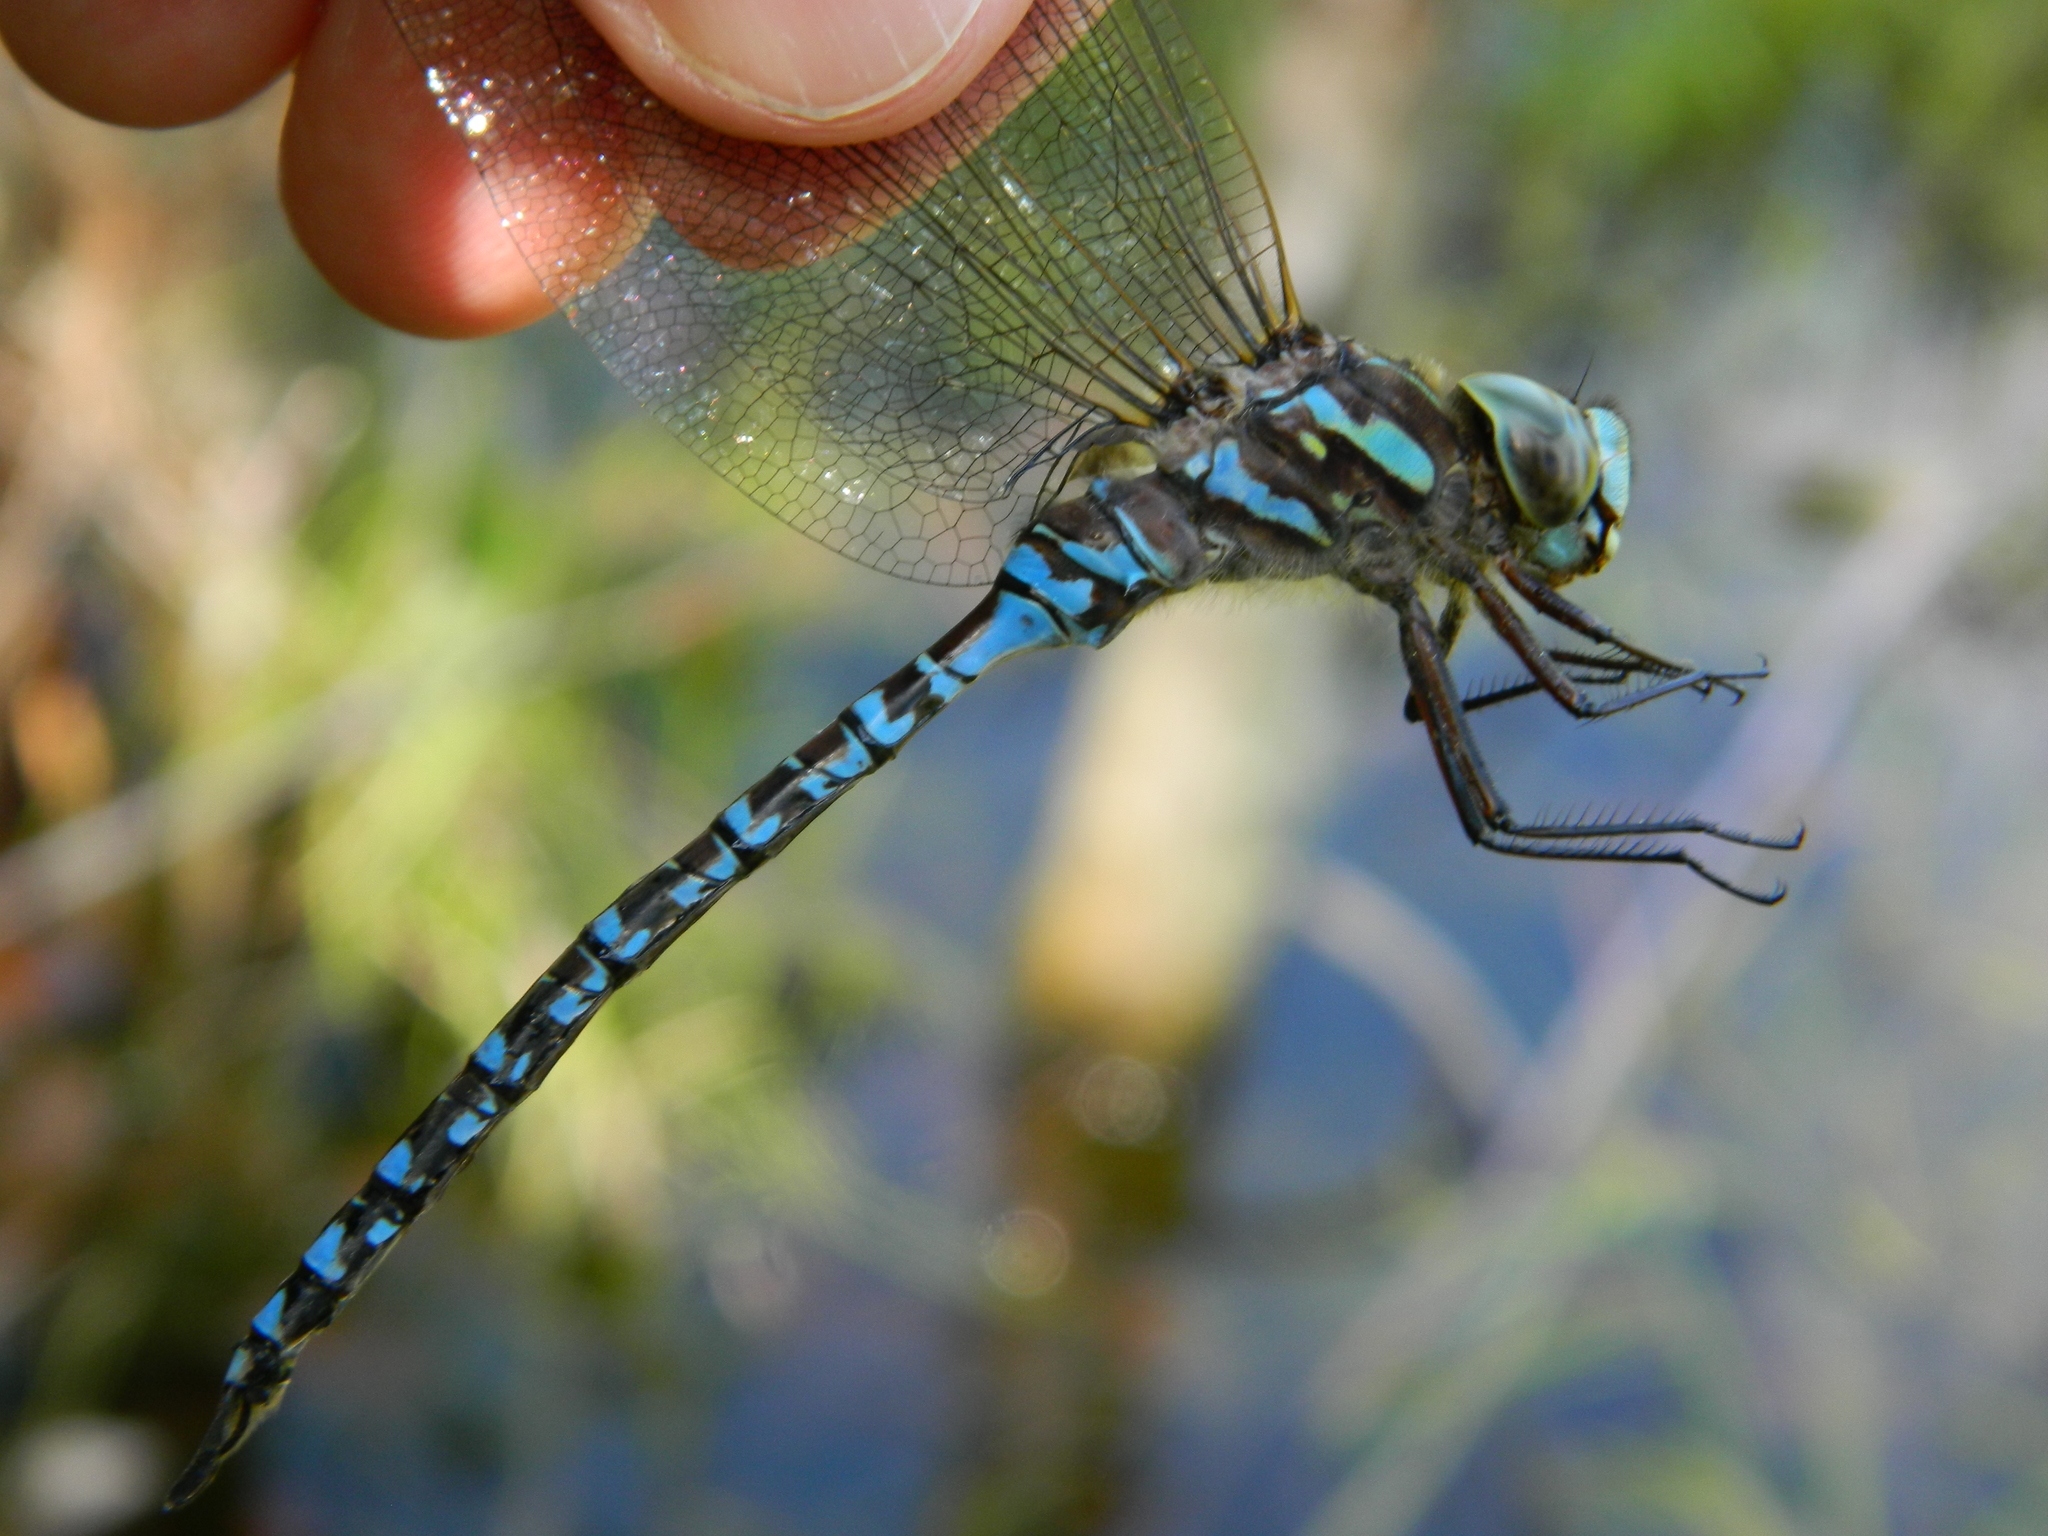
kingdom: Animalia
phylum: Arthropoda
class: Insecta
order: Odonata
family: Aeshnidae
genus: Aeshna
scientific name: Aeshna canadensis
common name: Canada darner
